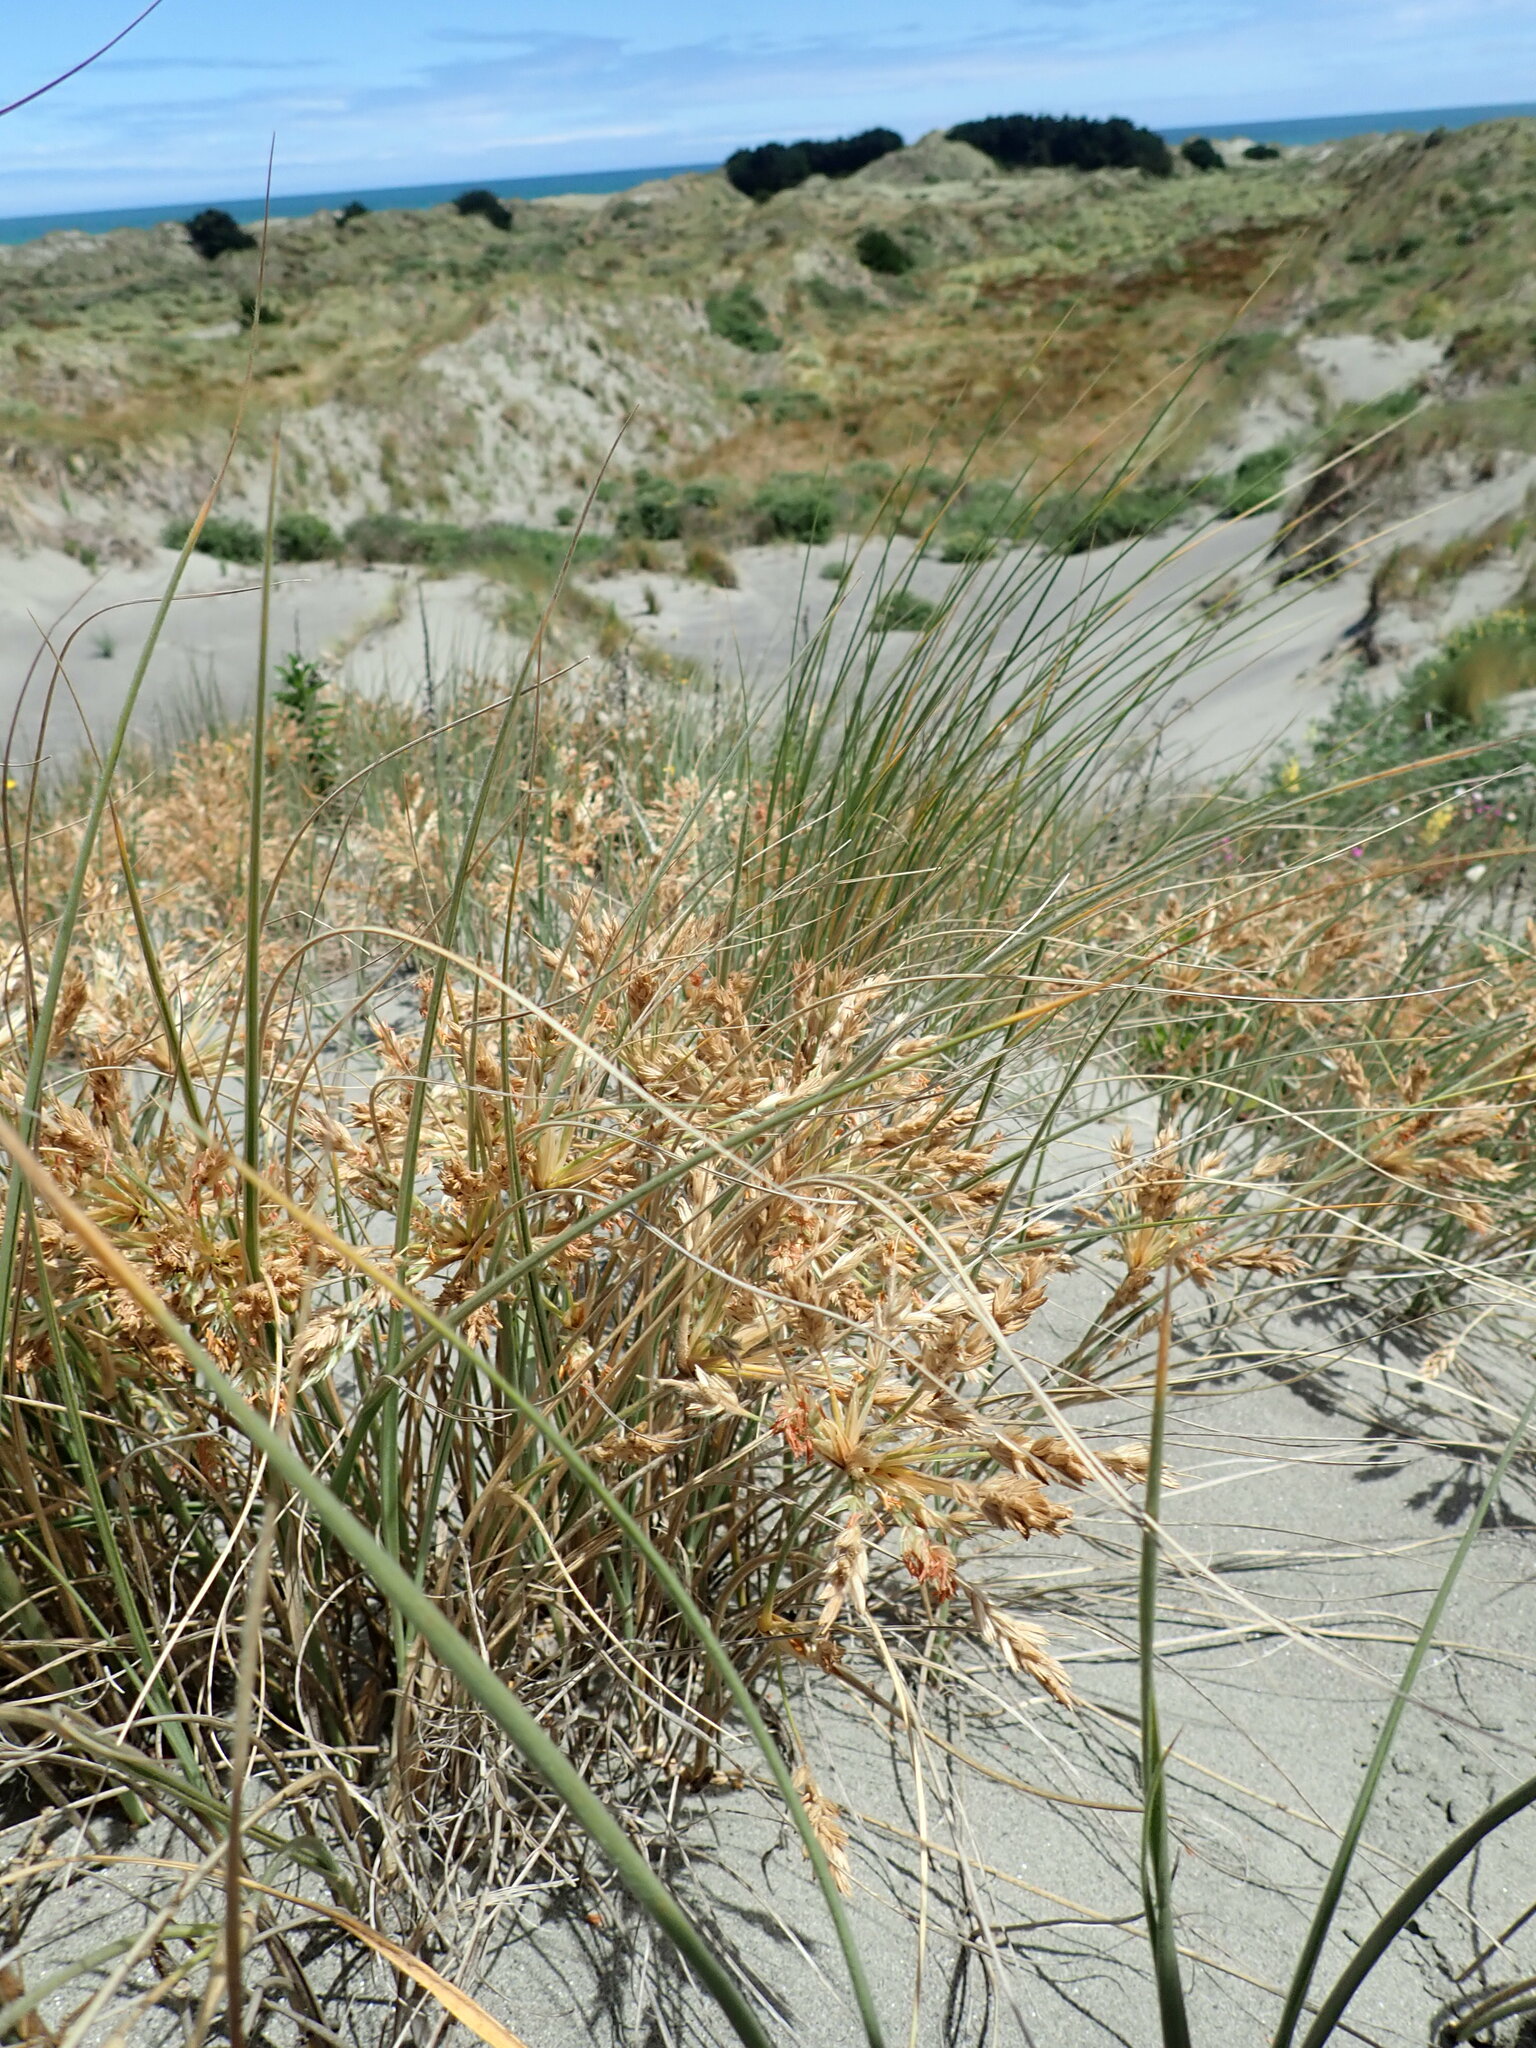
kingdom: Plantae
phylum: Tracheophyta
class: Liliopsida
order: Poales
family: Poaceae
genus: Spinifex
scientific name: Spinifex sericeus
